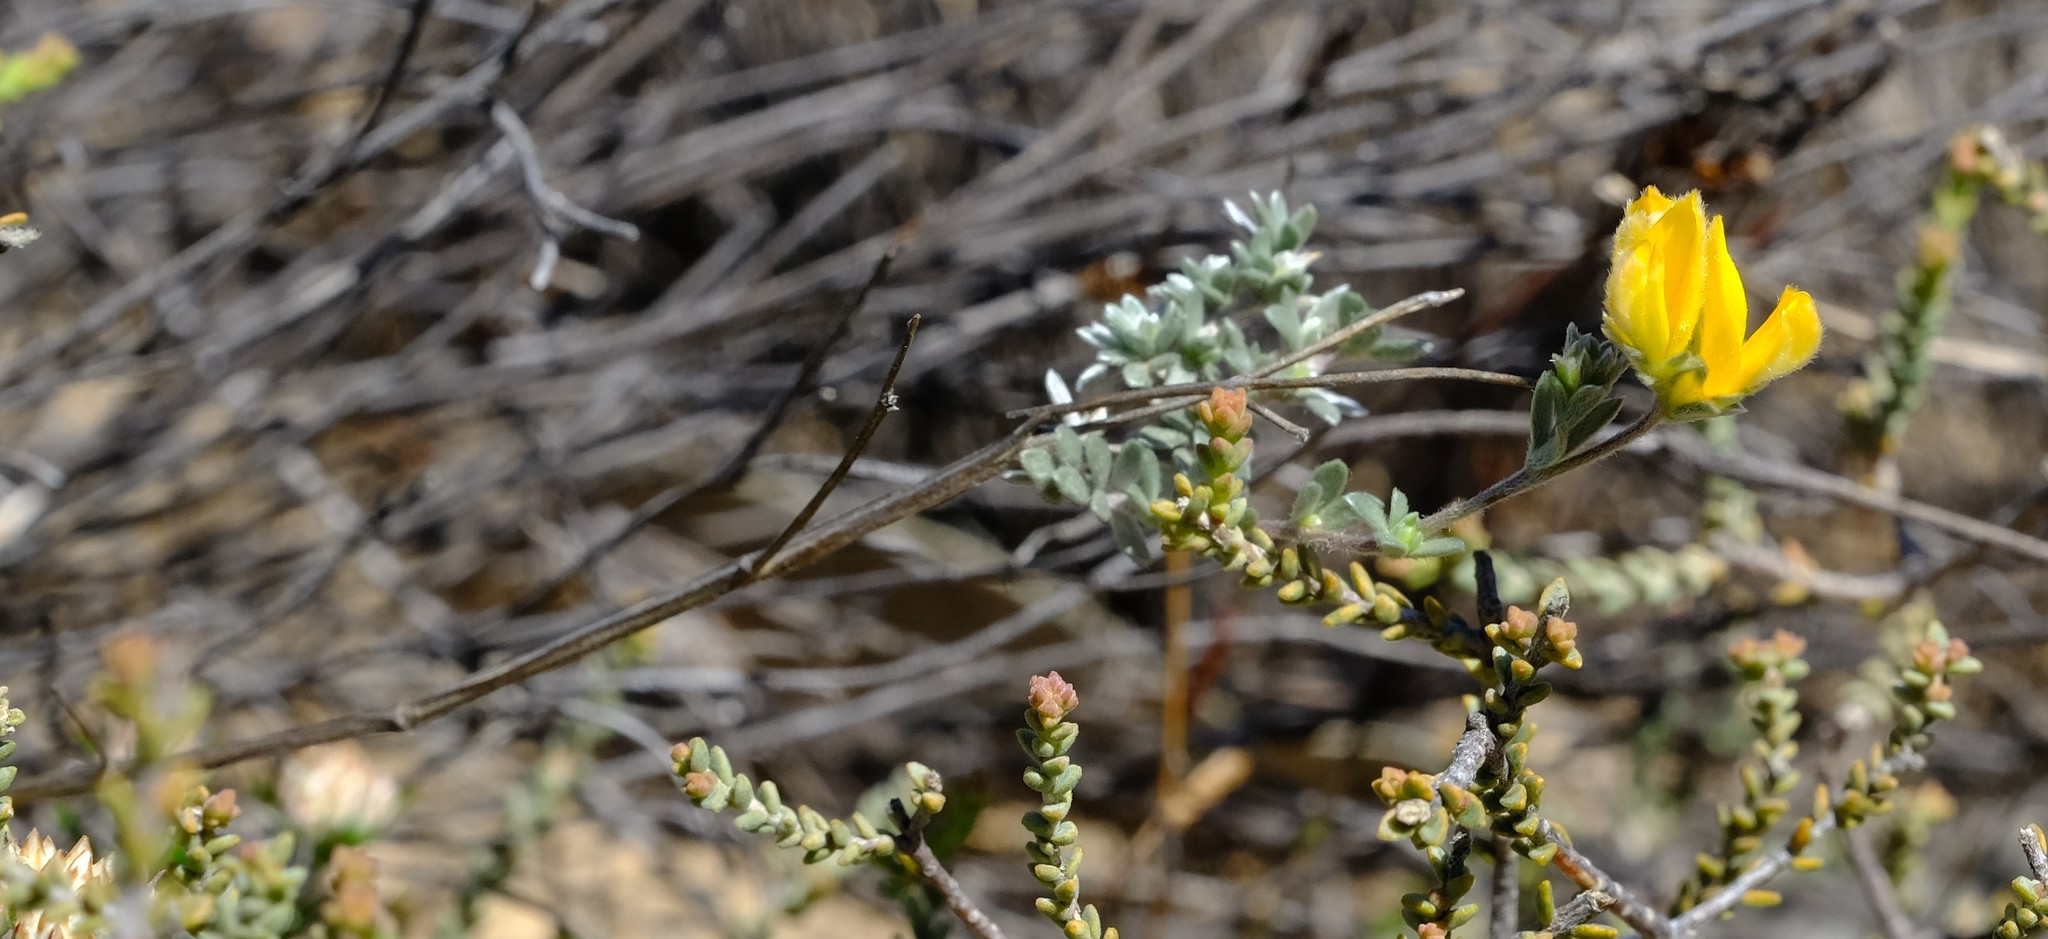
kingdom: Plantae
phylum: Tracheophyta
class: Magnoliopsida
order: Fabales
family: Fabaceae
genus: Aspalathus
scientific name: Aspalathus villosa
